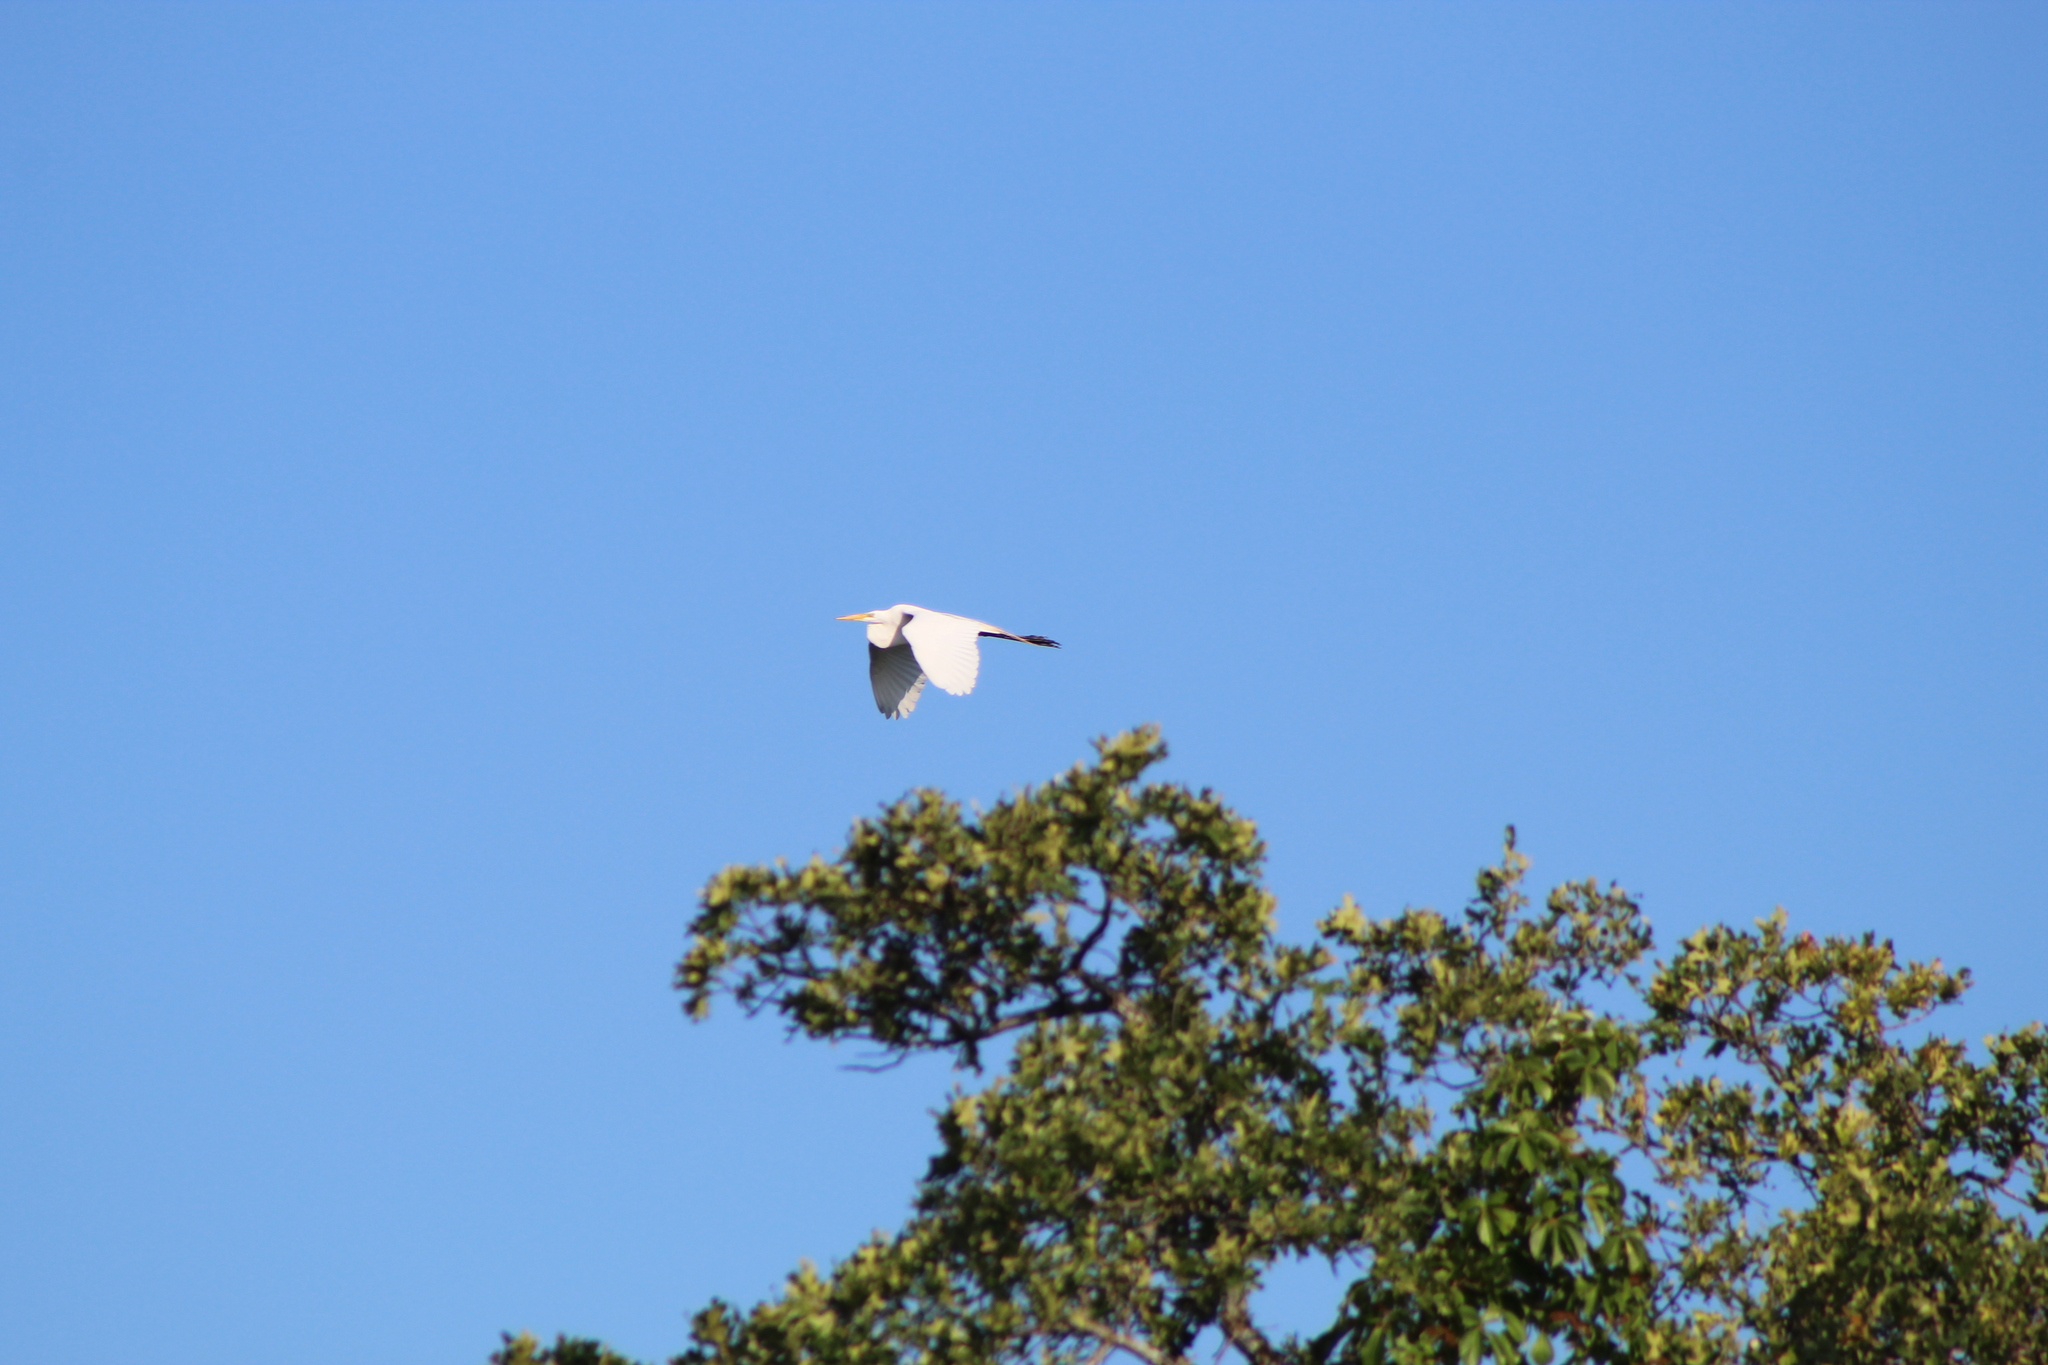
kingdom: Animalia
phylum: Chordata
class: Aves
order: Pelecaniformes
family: Ardeidae
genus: Ardea
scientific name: Ardea alba
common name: Great egret
